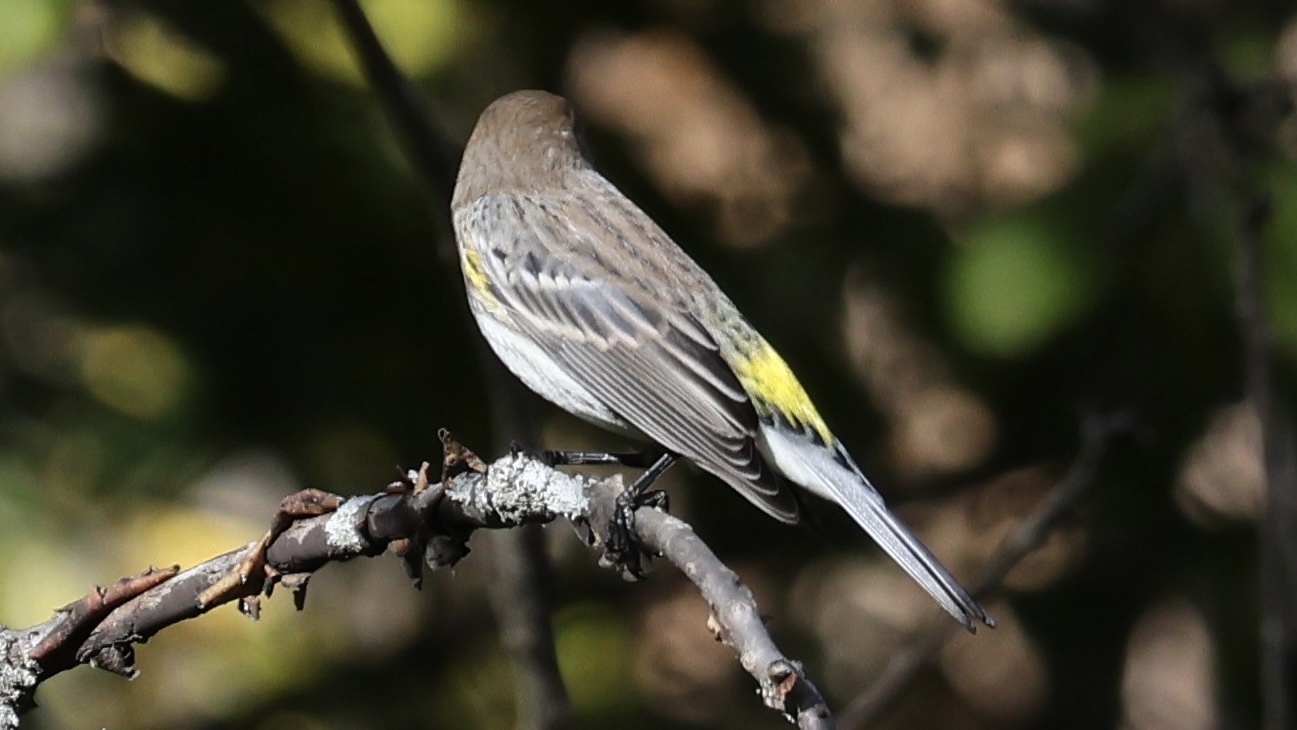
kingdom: Animalia
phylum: Chordata
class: Aves
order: Passeriformes
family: Parulidae
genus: Setophaga
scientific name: Setophaga coronata
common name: Myrtle warbler
